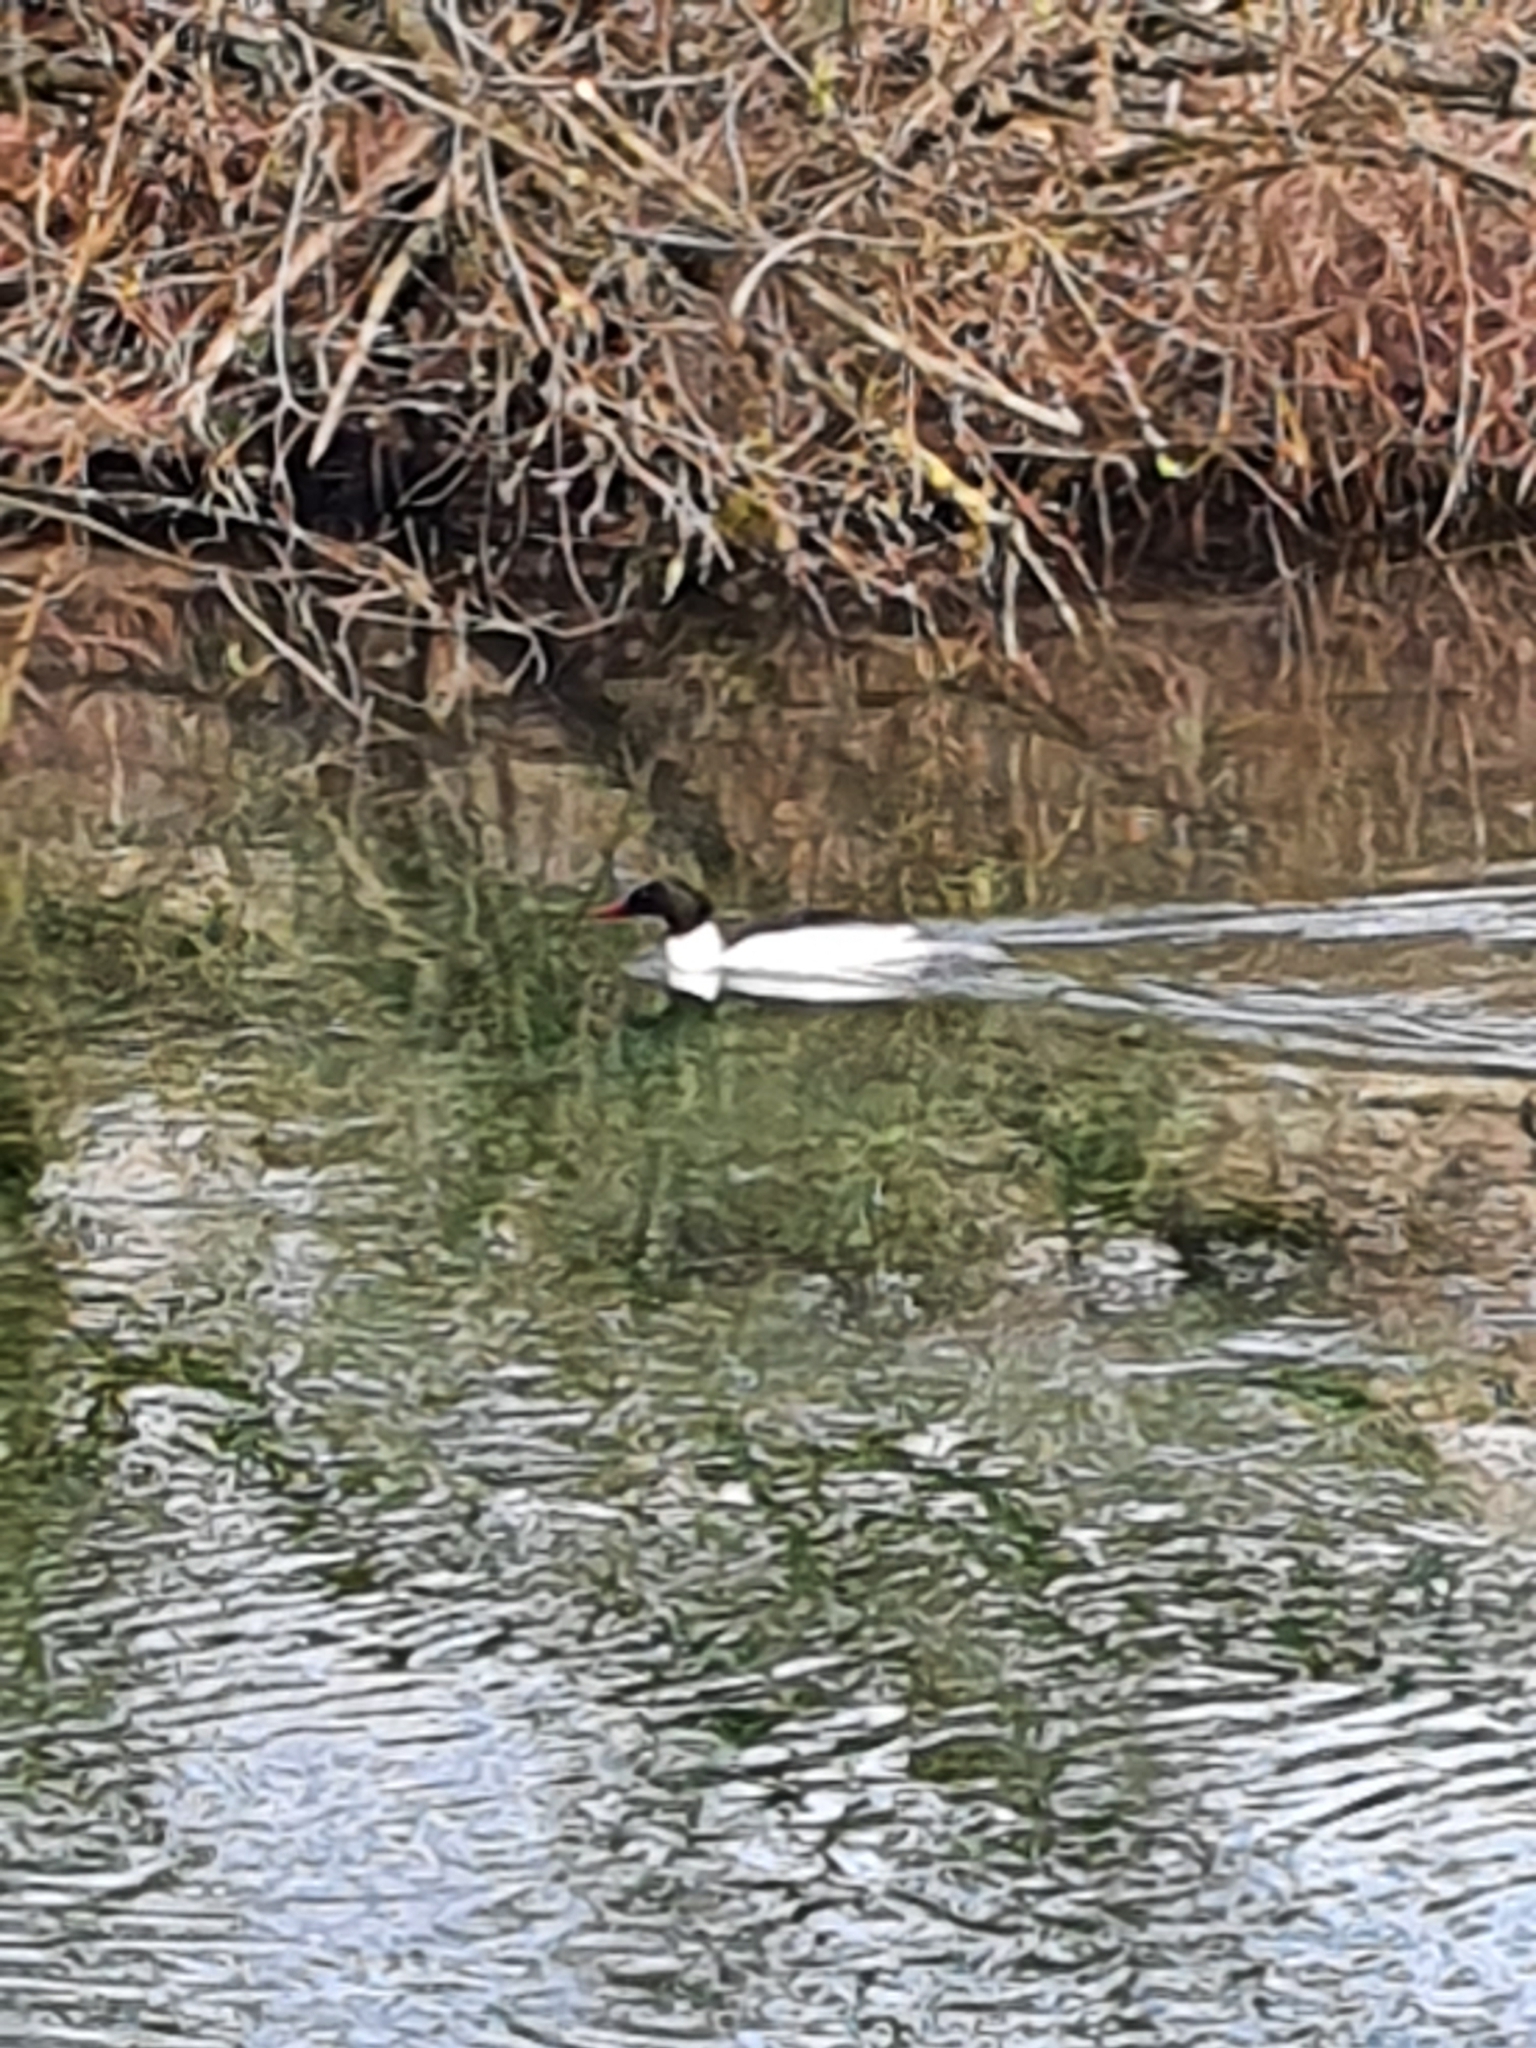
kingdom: Animalia
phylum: Chordata
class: Aves
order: Anseriformes
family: Anatidae
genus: Mergus
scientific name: Mergus merganser
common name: Common merganser
